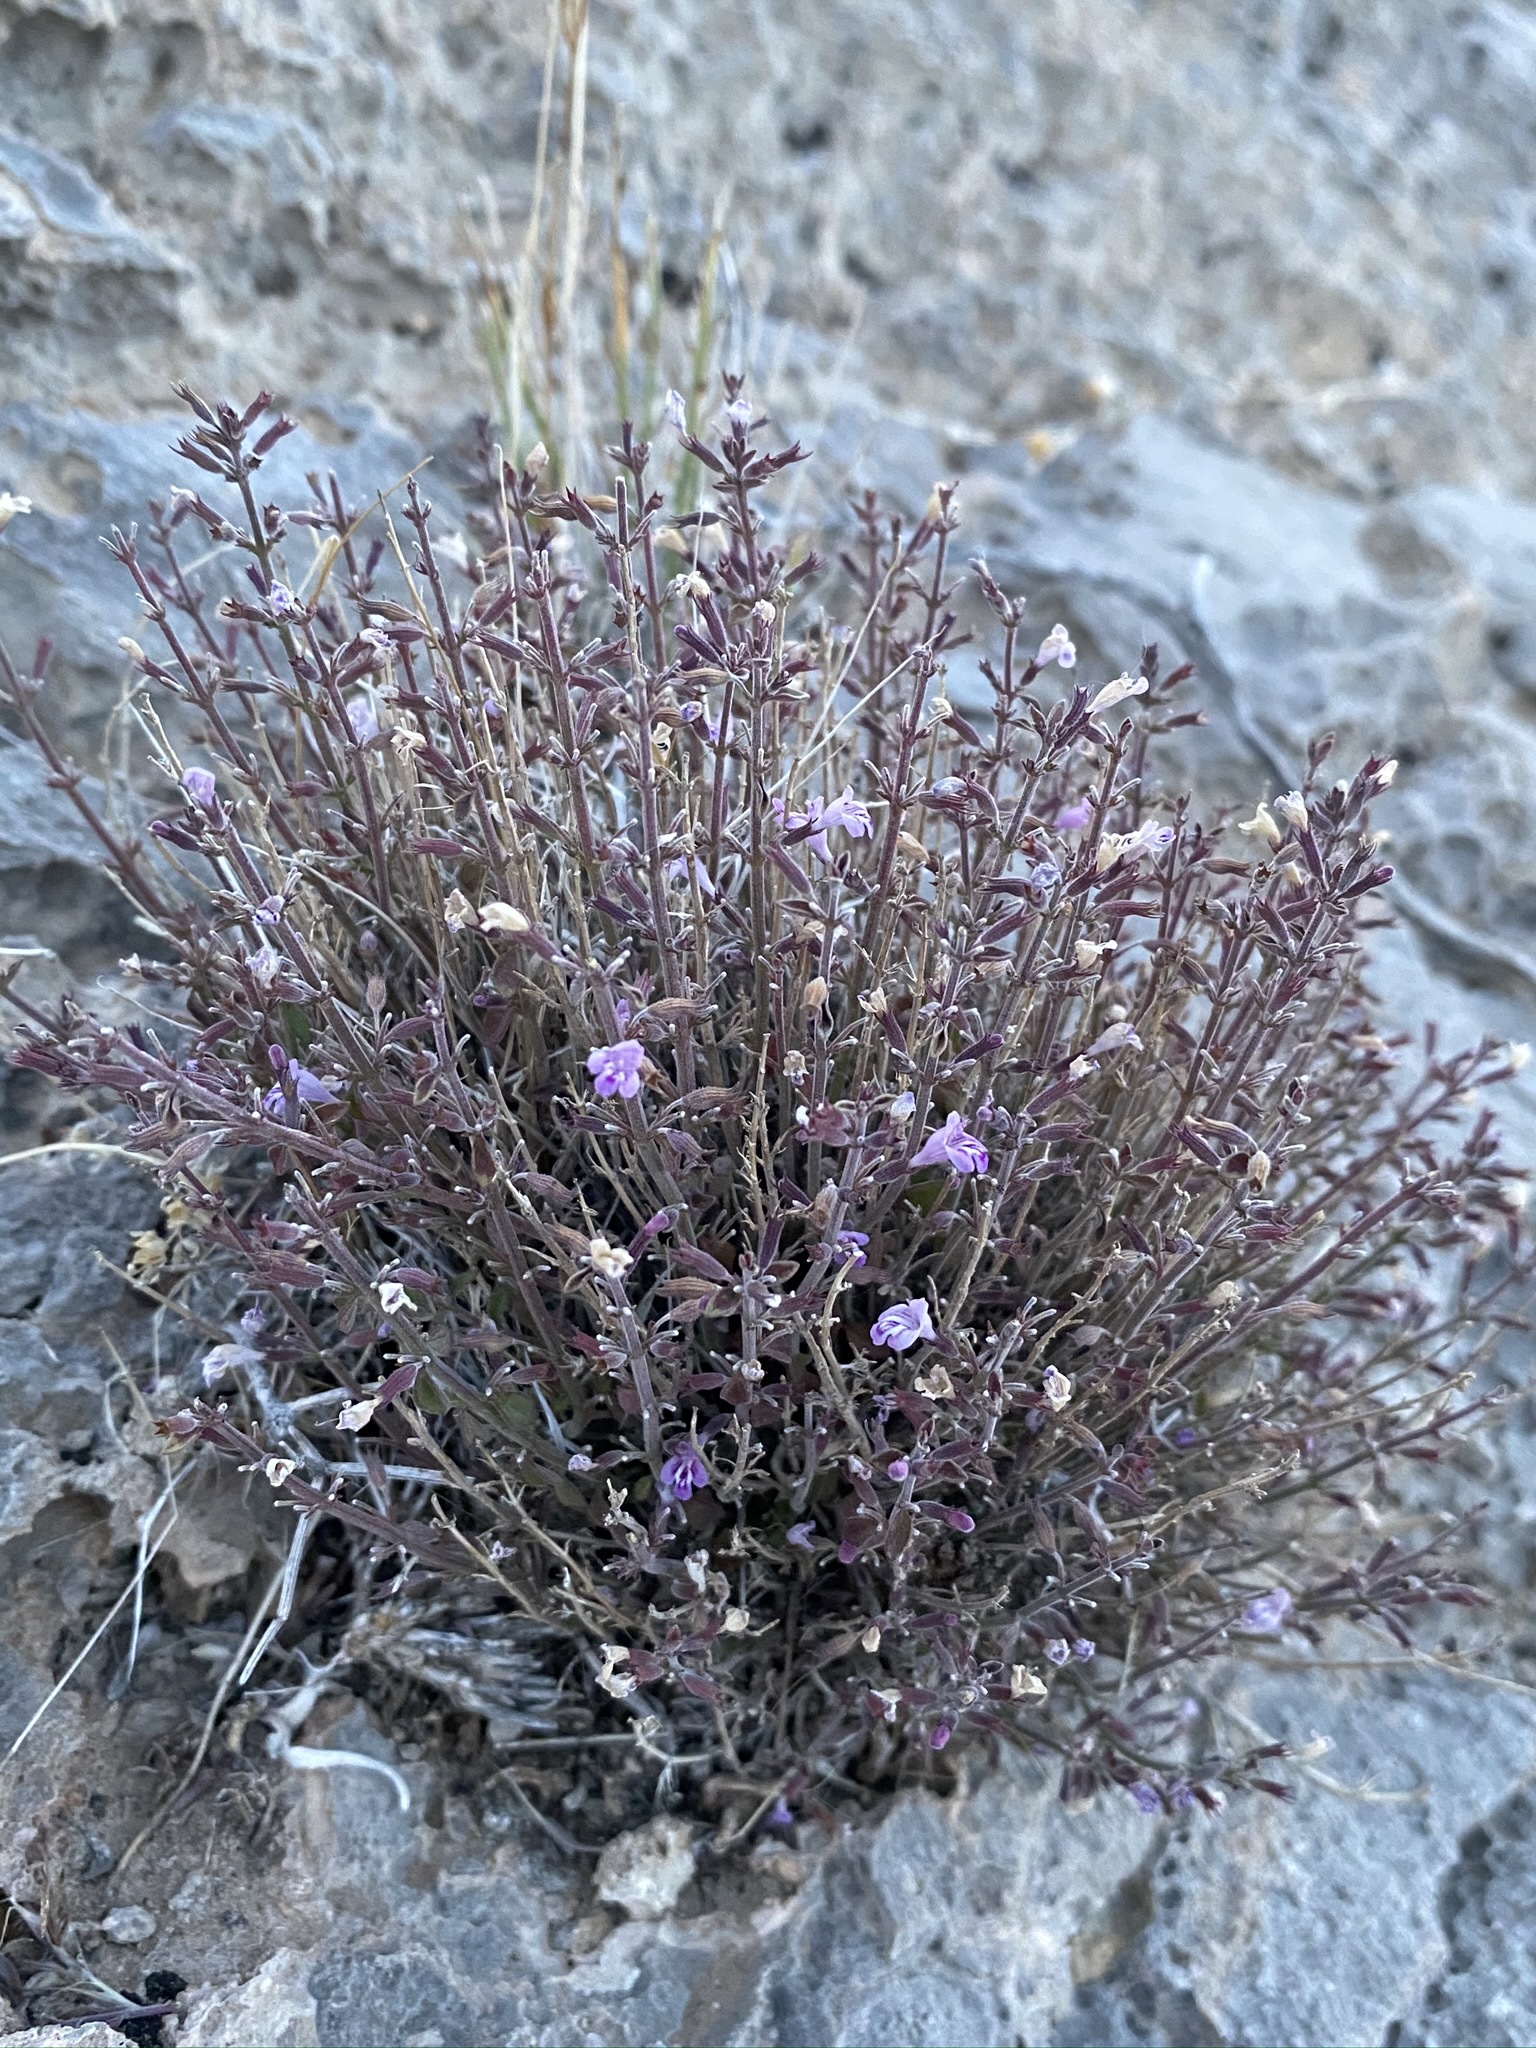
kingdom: Plantae
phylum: Tracheophyta
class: Magnoliopsida
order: Lamiales
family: Lamiaceae
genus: Hedeoma
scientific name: Hedeoma nana
